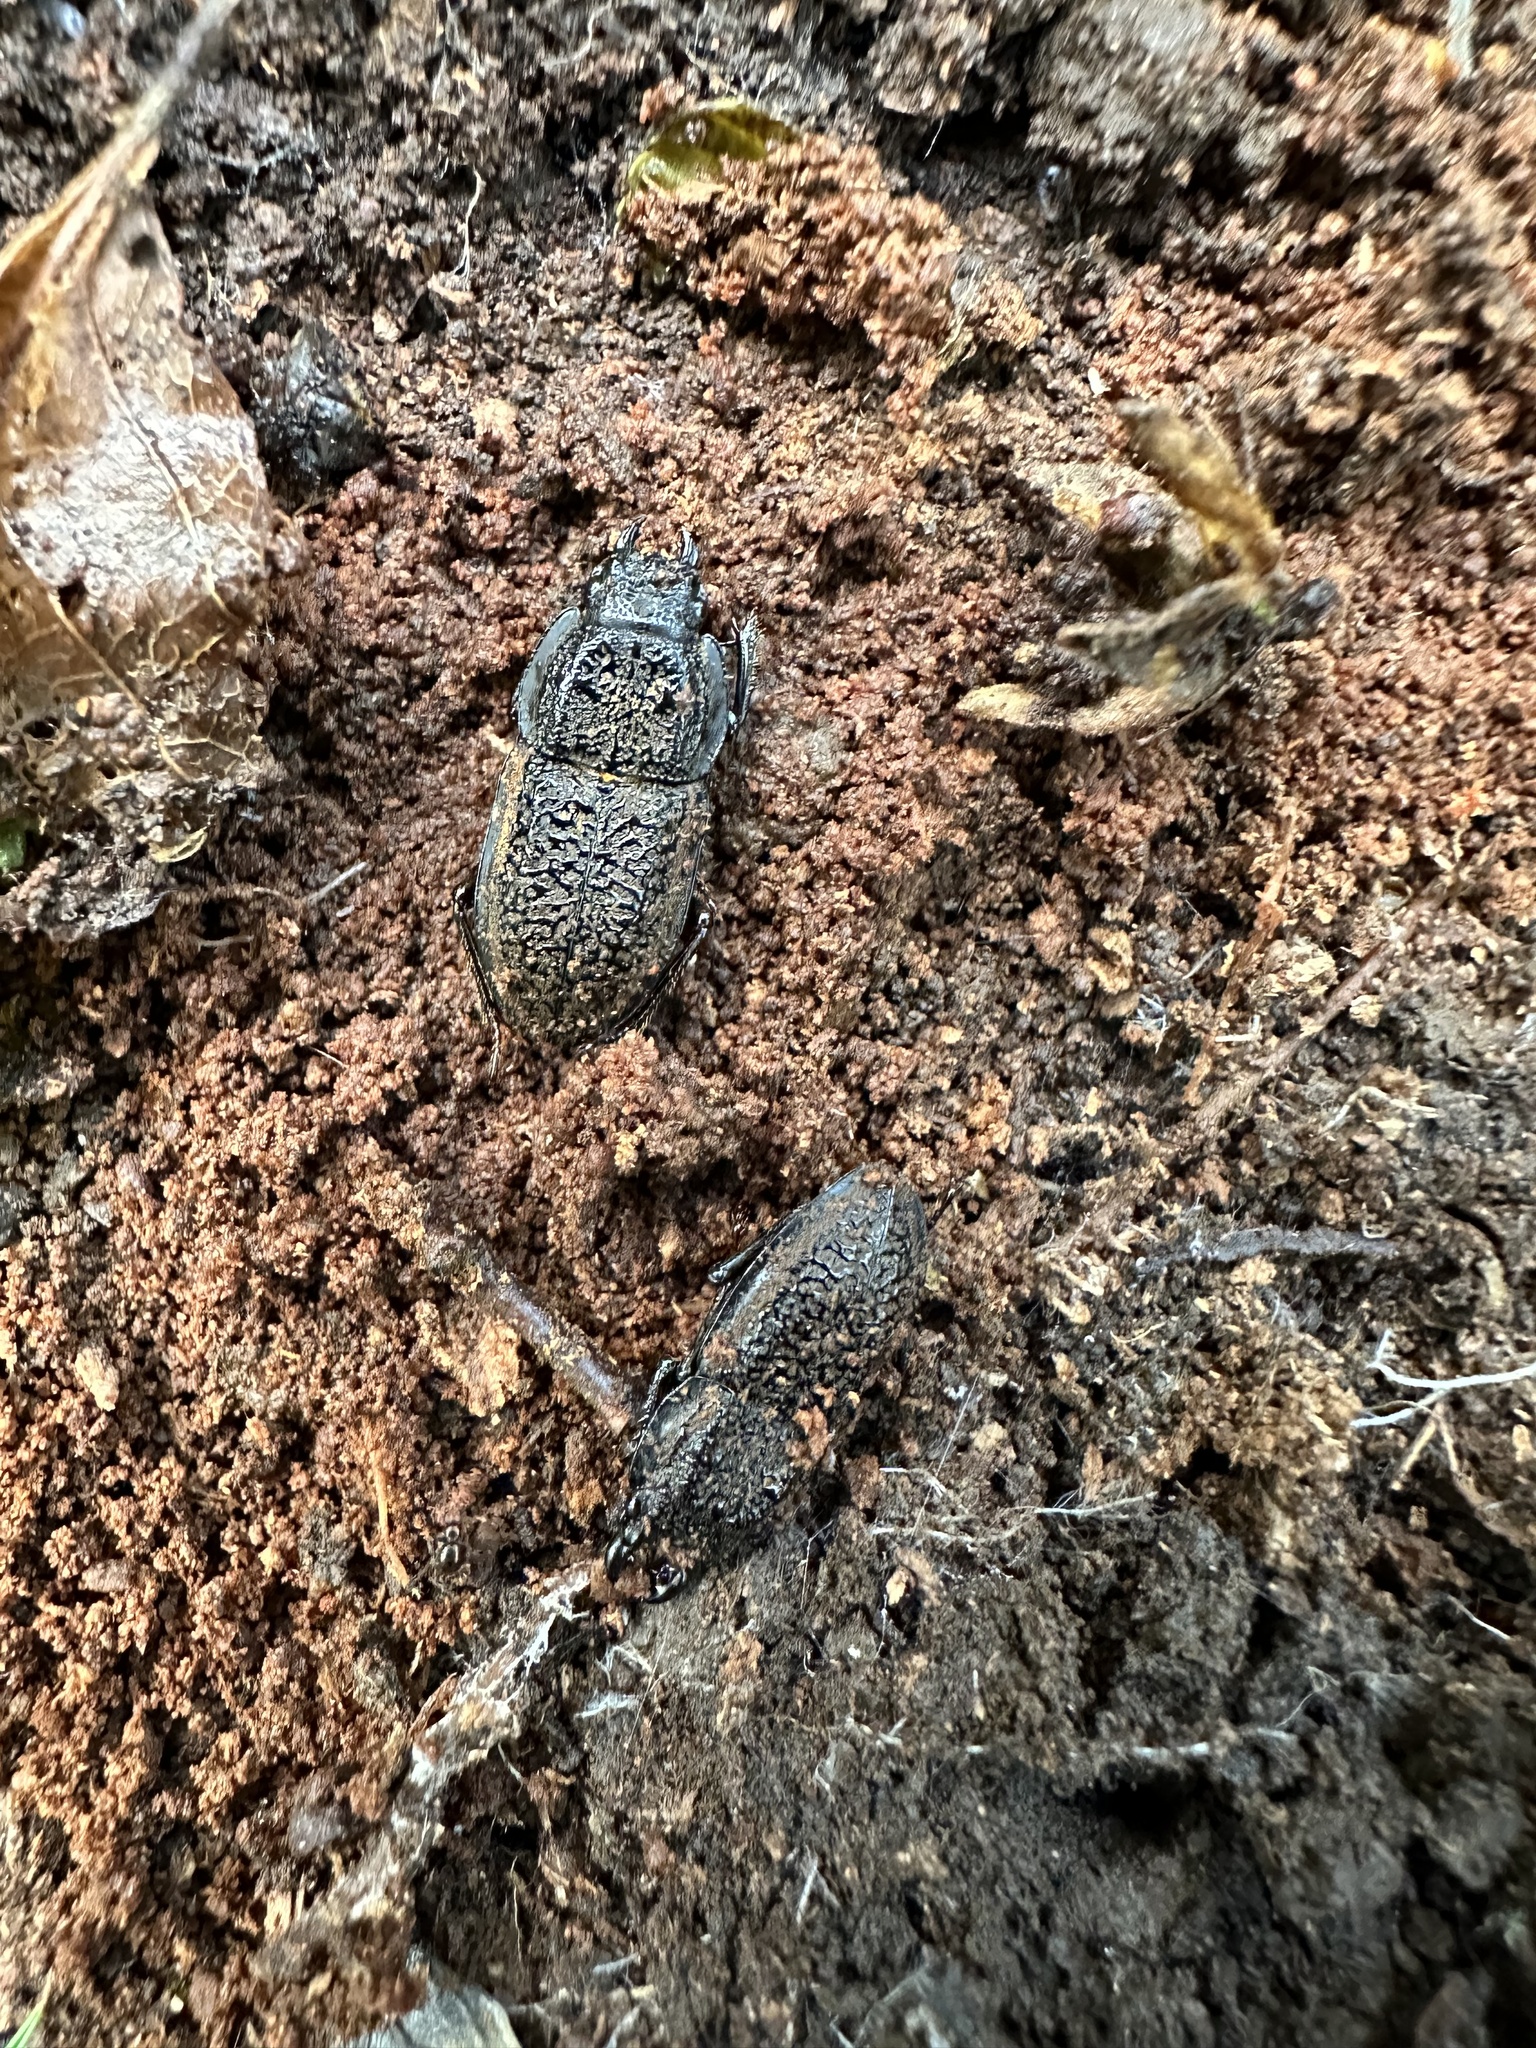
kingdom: Animalia
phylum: Arthropoda
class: Insecta
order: Coleoptera
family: Lucanidae
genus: Erichius
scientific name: Erichius caelatus
